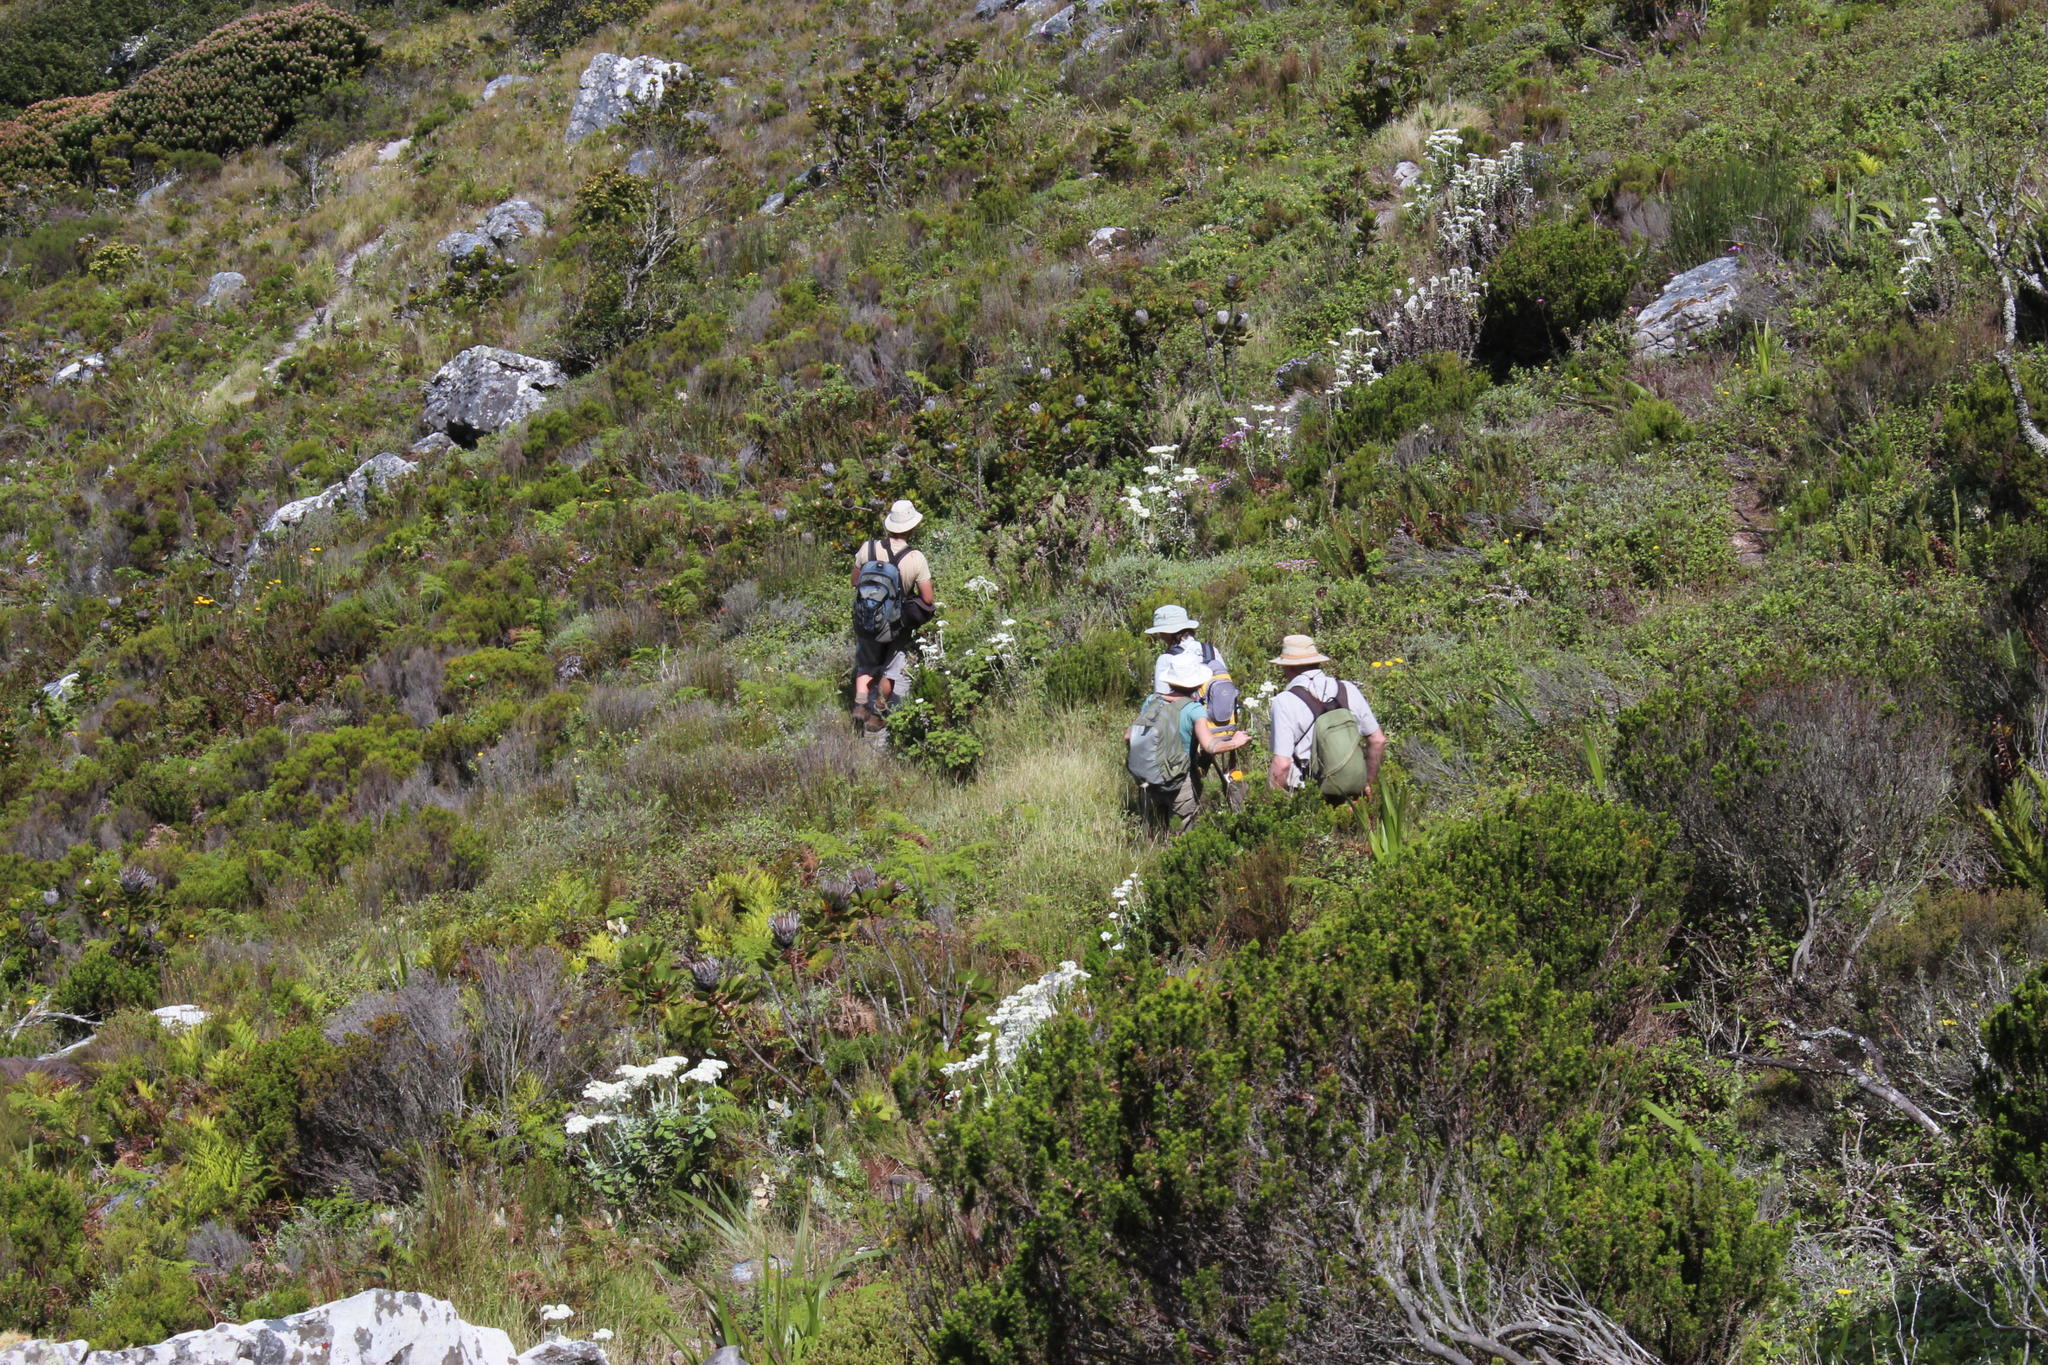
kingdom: Plantae
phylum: Tracheophyta
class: Magnoliopsida
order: Proteales
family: Proteaceae
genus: Protea
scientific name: Protea cynaroides
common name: King protea
